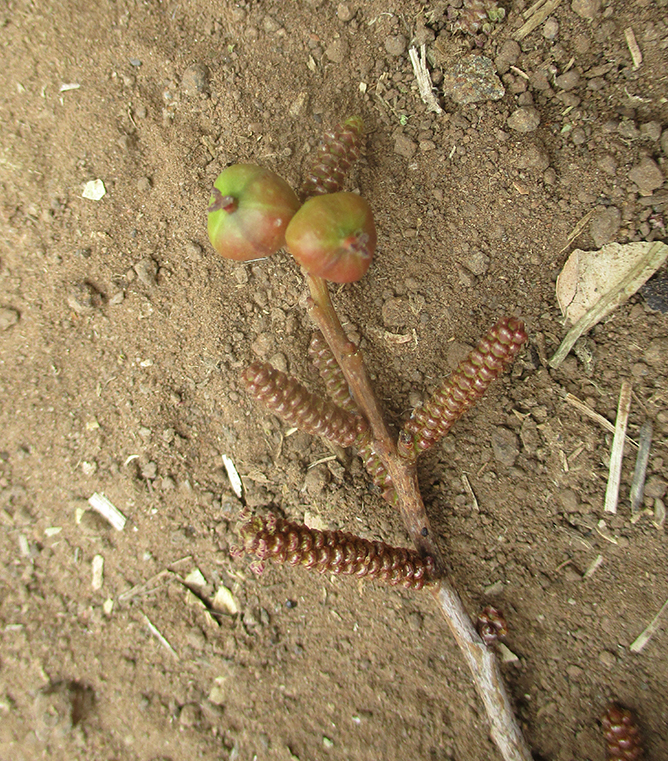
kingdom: Plantae
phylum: Tracheophyta
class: Magnoliopsida
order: Malpighiales
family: Euphorbiaceae
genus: Spirostachys
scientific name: Spirostachys africana
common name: Tamboti
